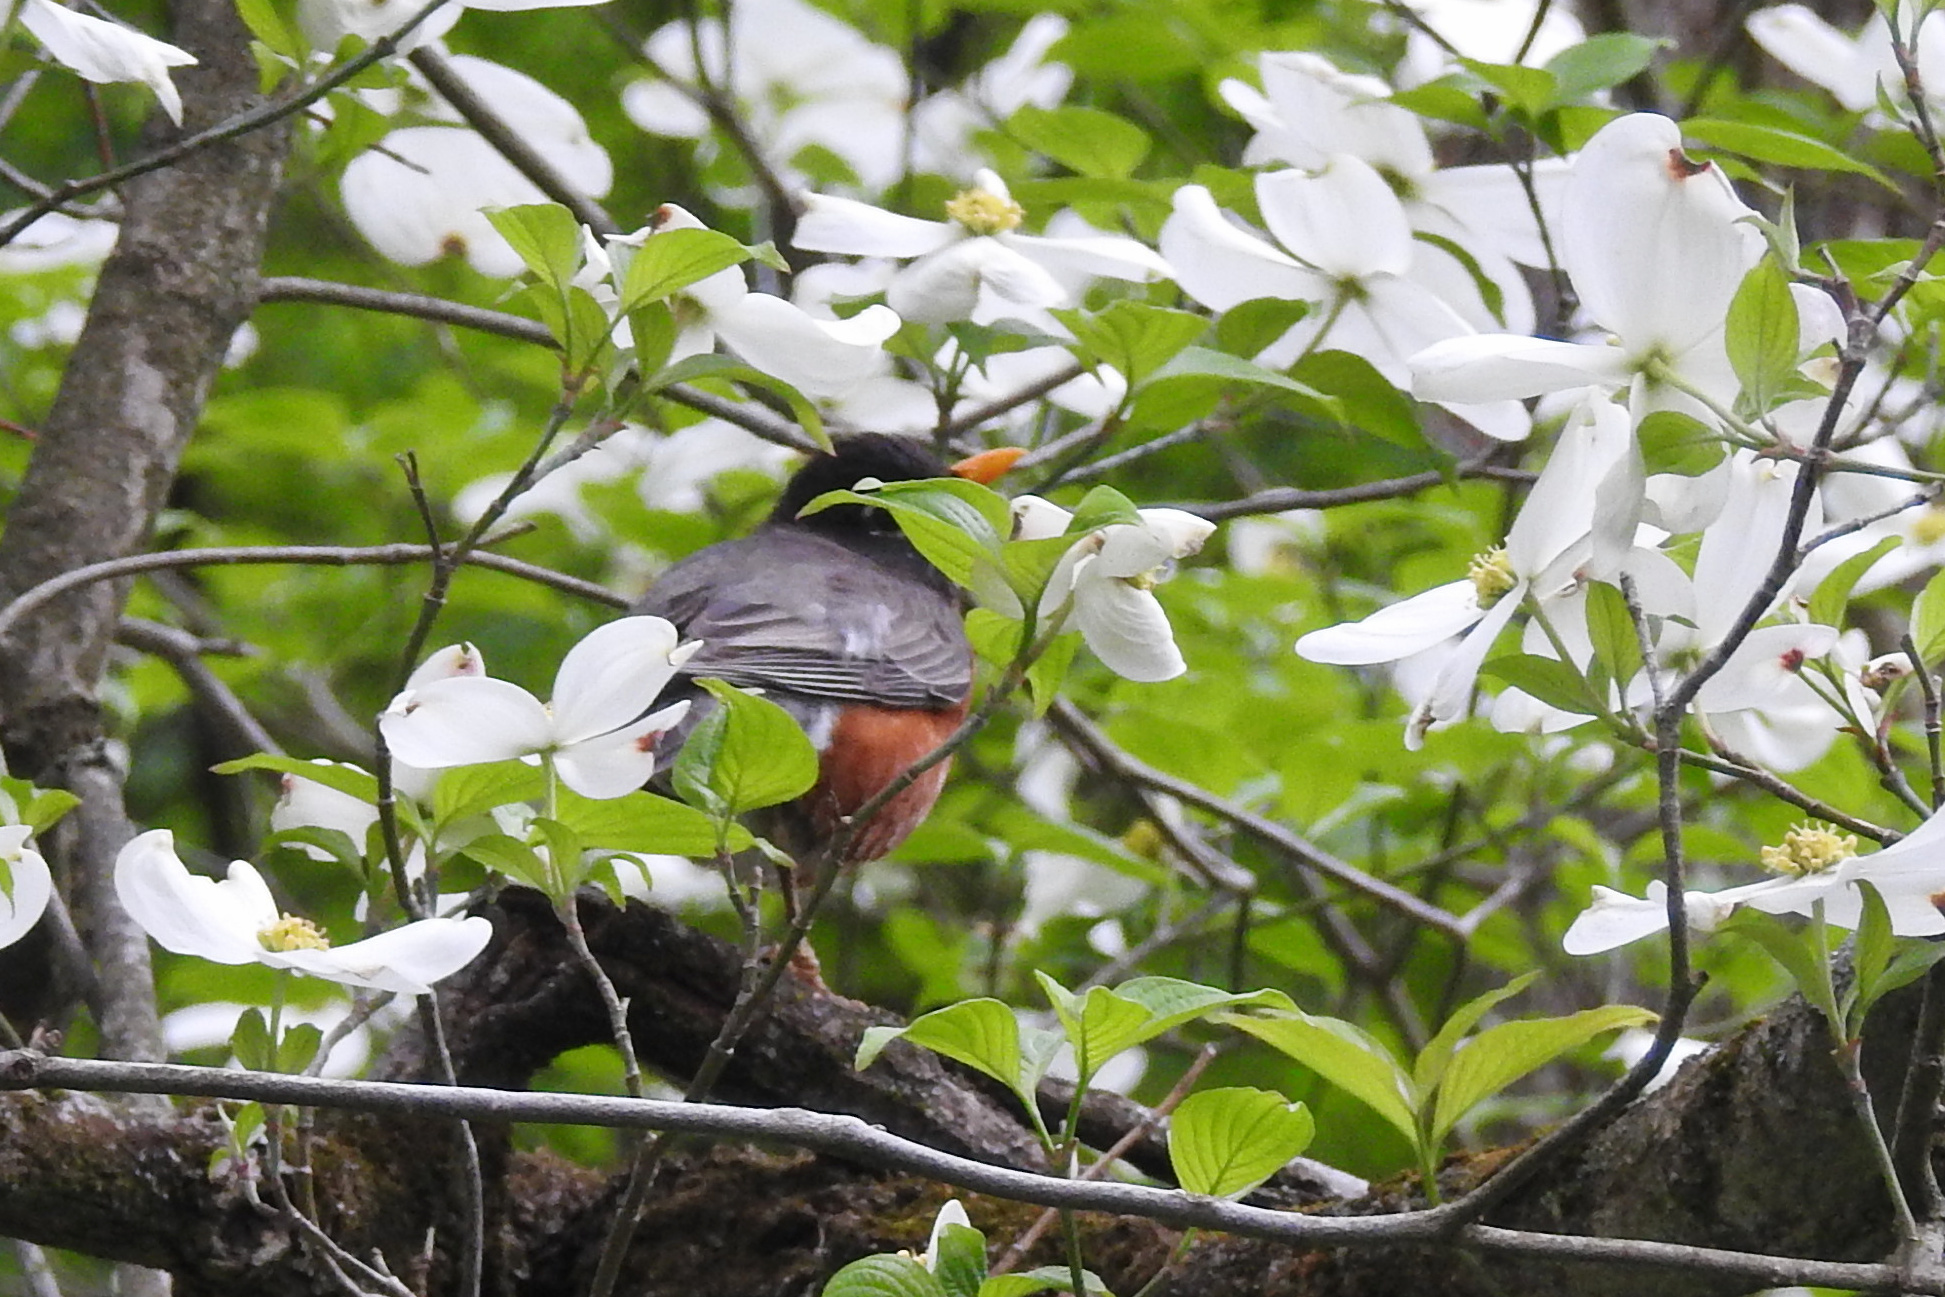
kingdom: Animalia
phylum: Chordata
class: Aves
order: Passeriformes
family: Turdidae
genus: Turdus
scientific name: Turdus migratorius
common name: American robin
